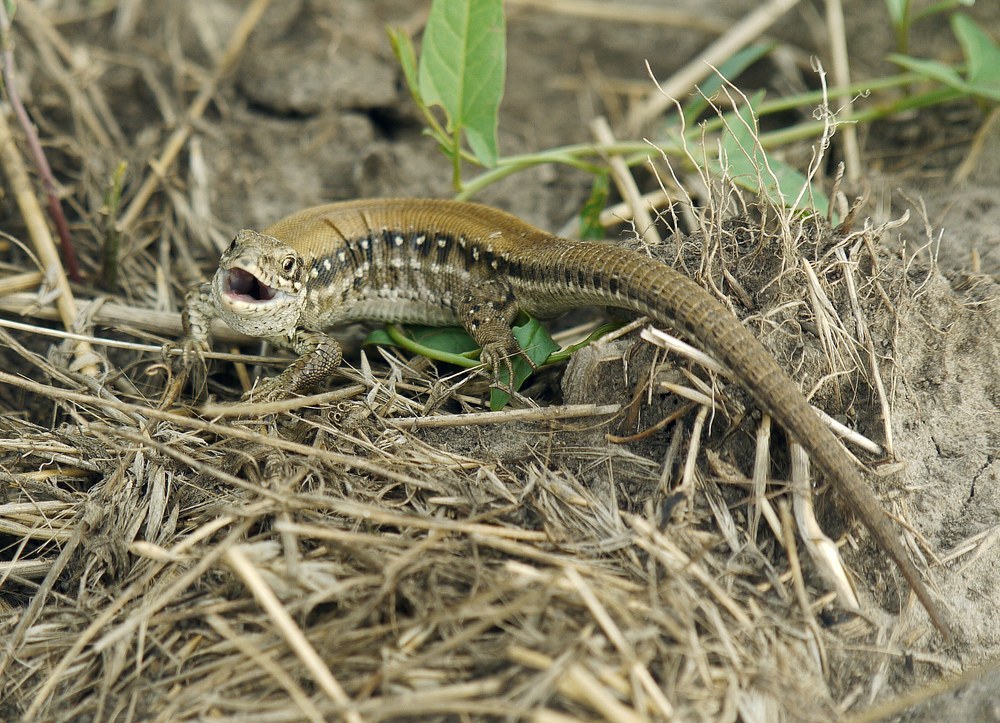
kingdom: Animalia
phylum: Chordata
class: Squamata
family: Lacertidae
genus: Lacerta
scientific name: Lacerta agilis
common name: Sand lizard
